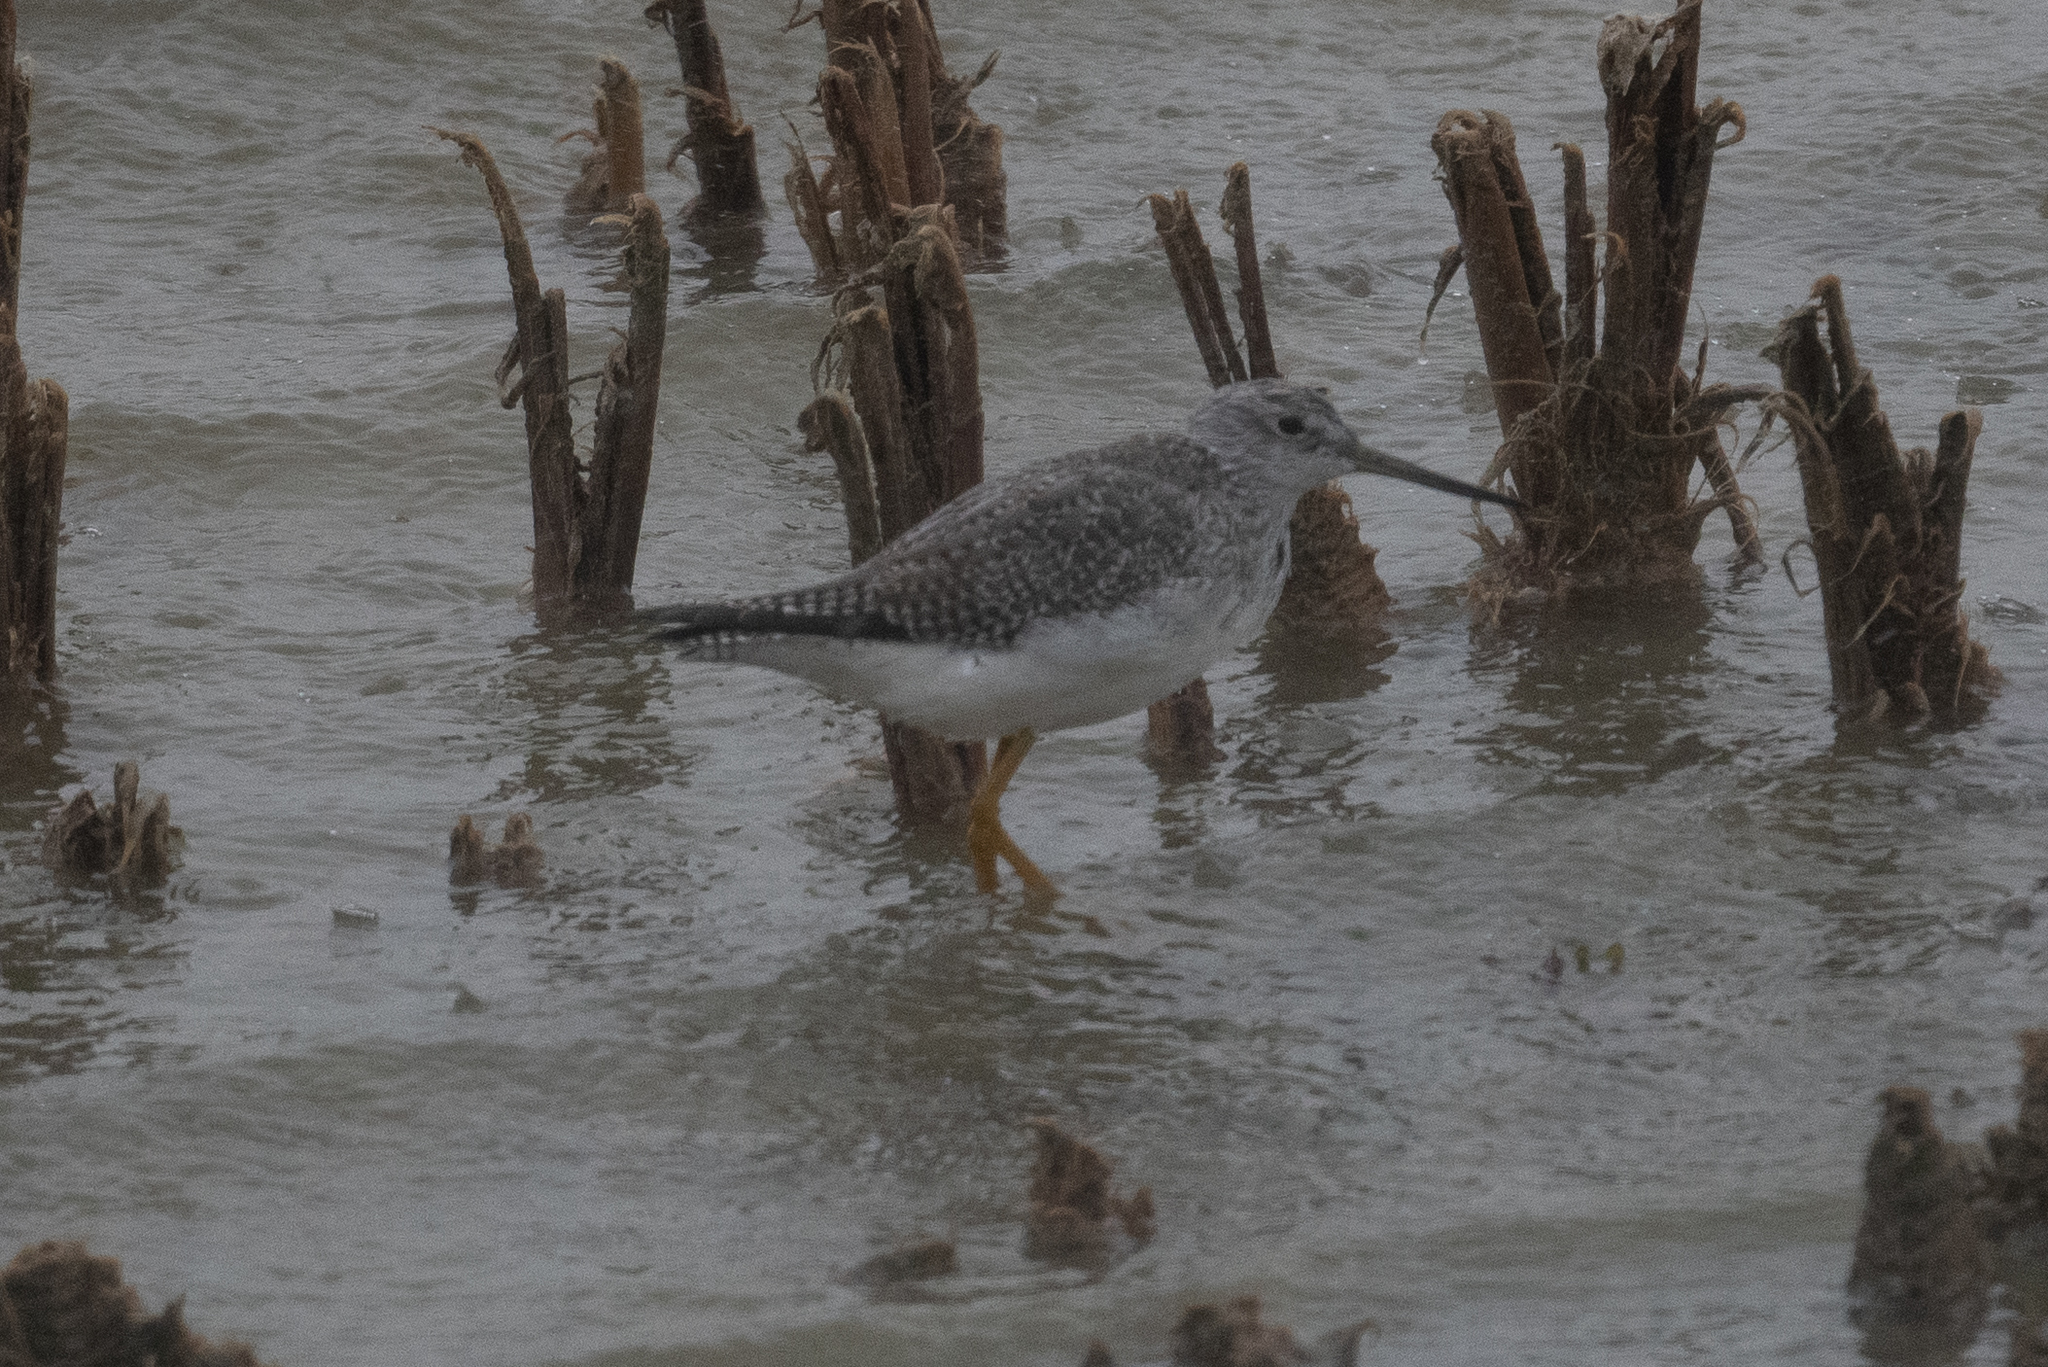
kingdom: Animalia
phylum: Chordata
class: Aves
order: Charadriiformes
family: Scolopacidae
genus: Tringa
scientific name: Tringa melanoleuca
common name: Greater yellowlegs
